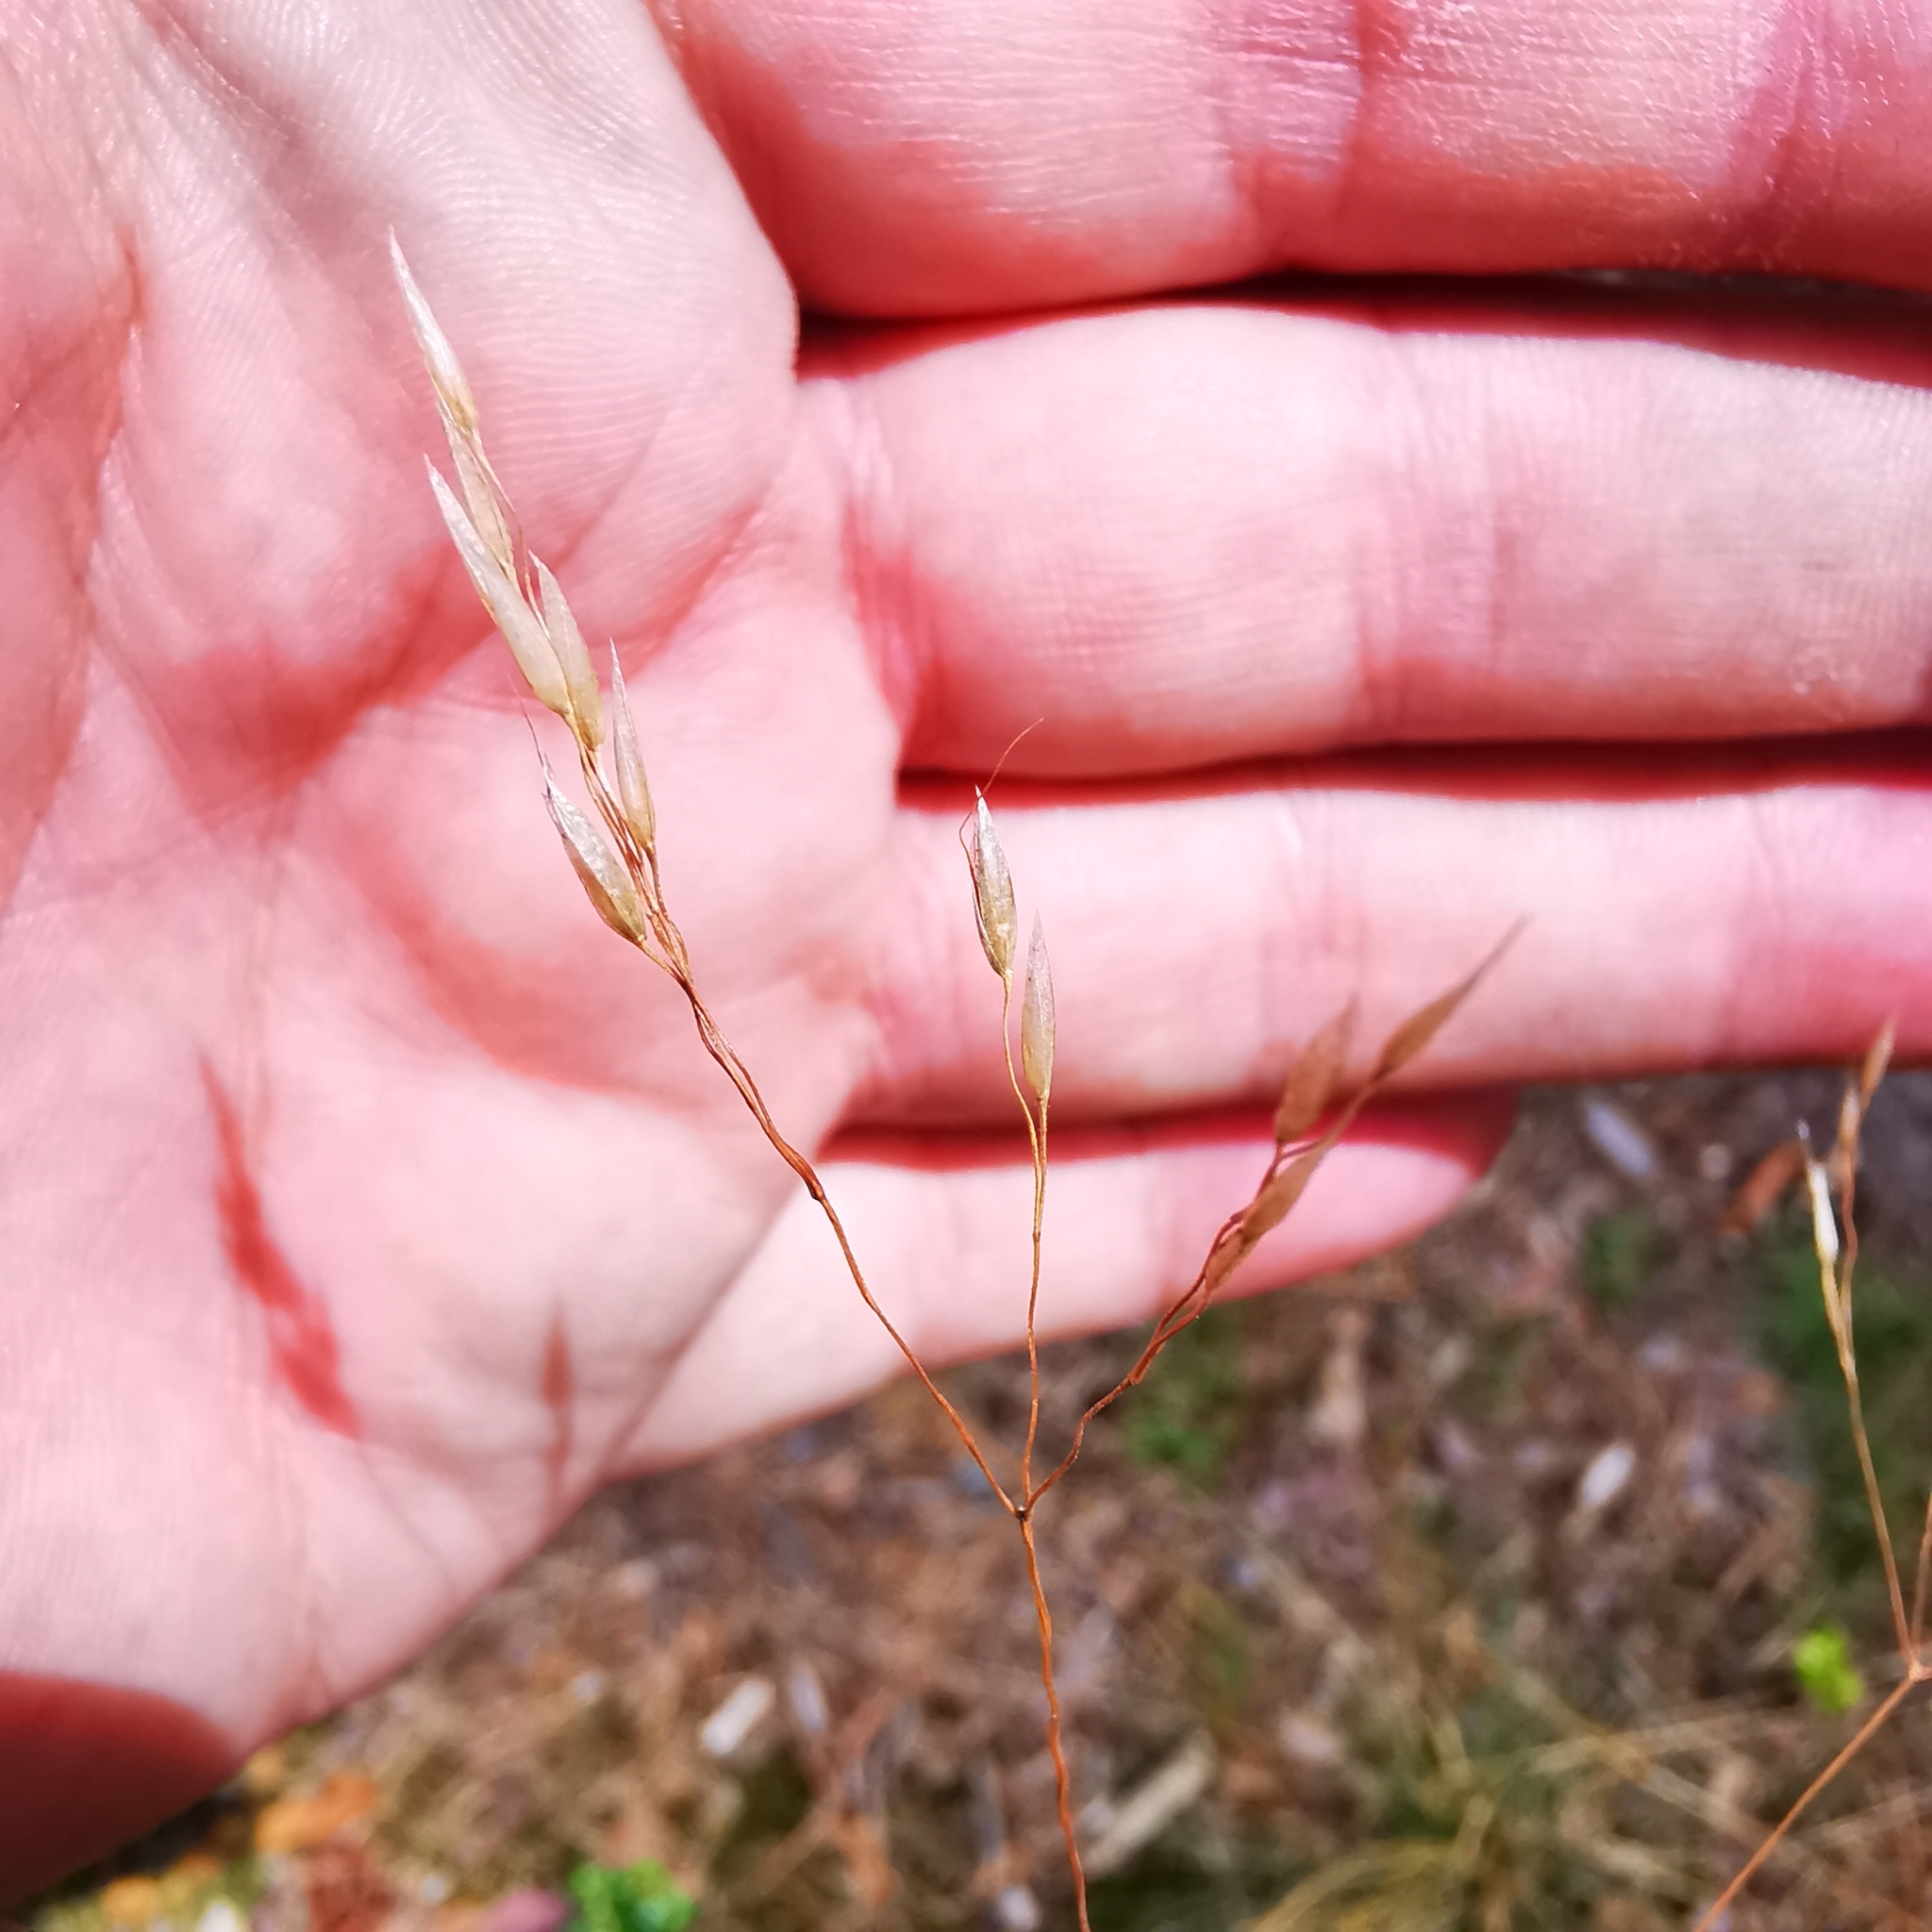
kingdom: Plantae
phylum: Tracheophyta
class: Liliopsida
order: Poales
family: Poaceae
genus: Avenella
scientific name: Avenella flexuosa
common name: Wavy hairgrass
